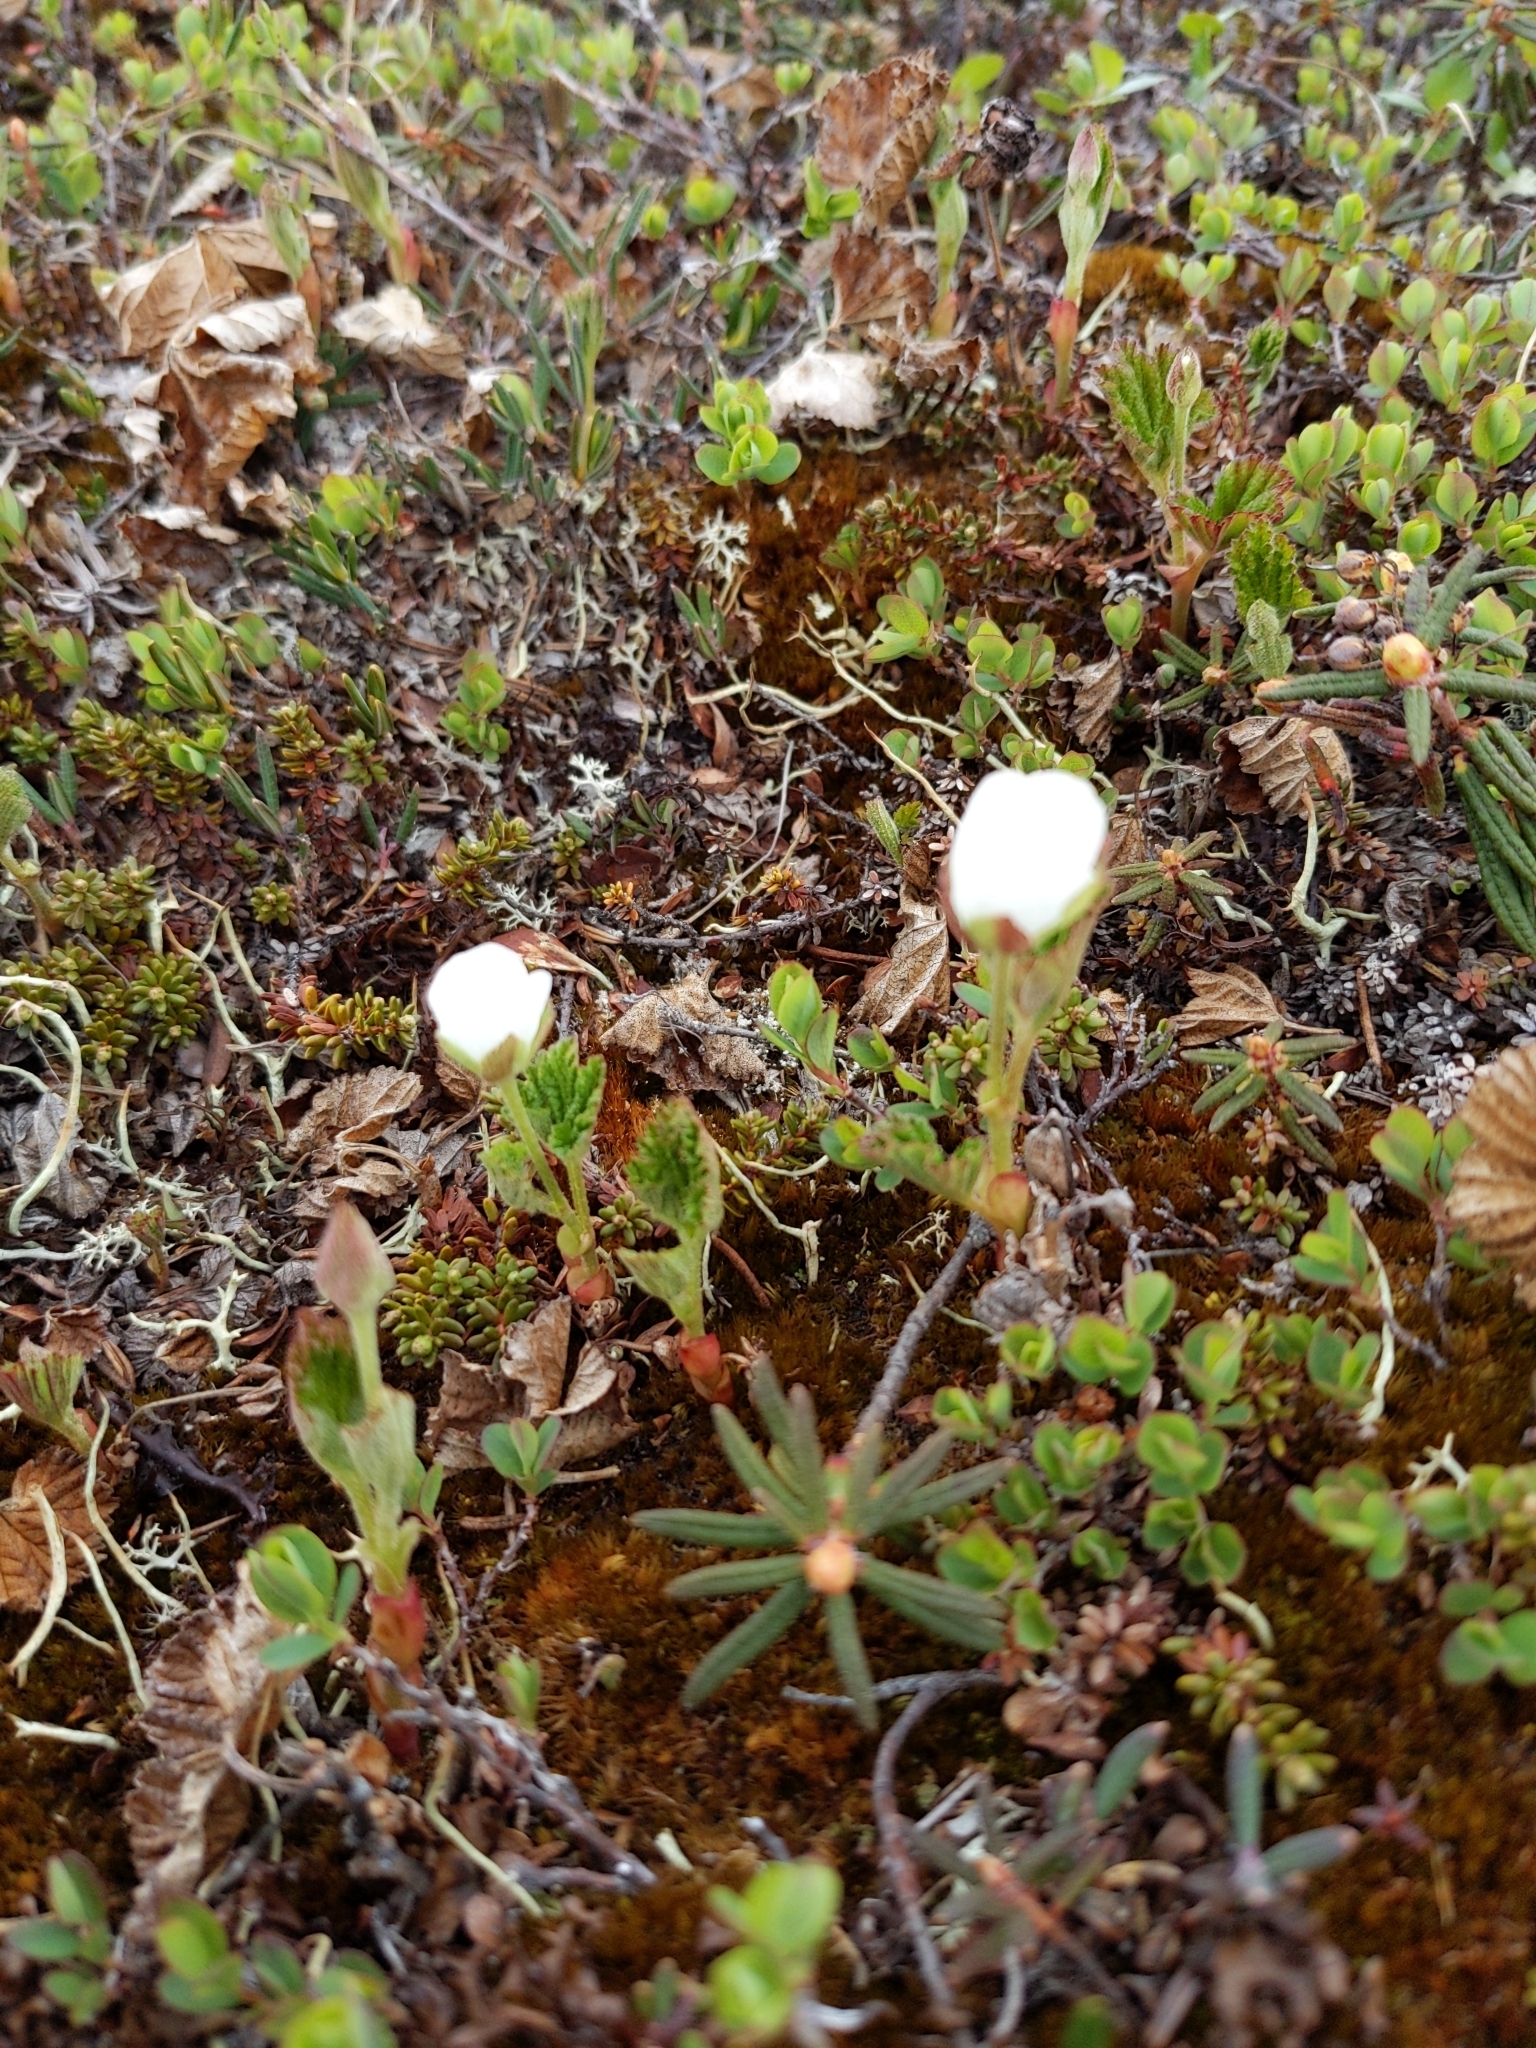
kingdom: Plantae
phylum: Tracheophyta
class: Magnoliopsida
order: Rosales
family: Rosaceae
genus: Rubus
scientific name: Rubus chamaemorus
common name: Cloudberry
